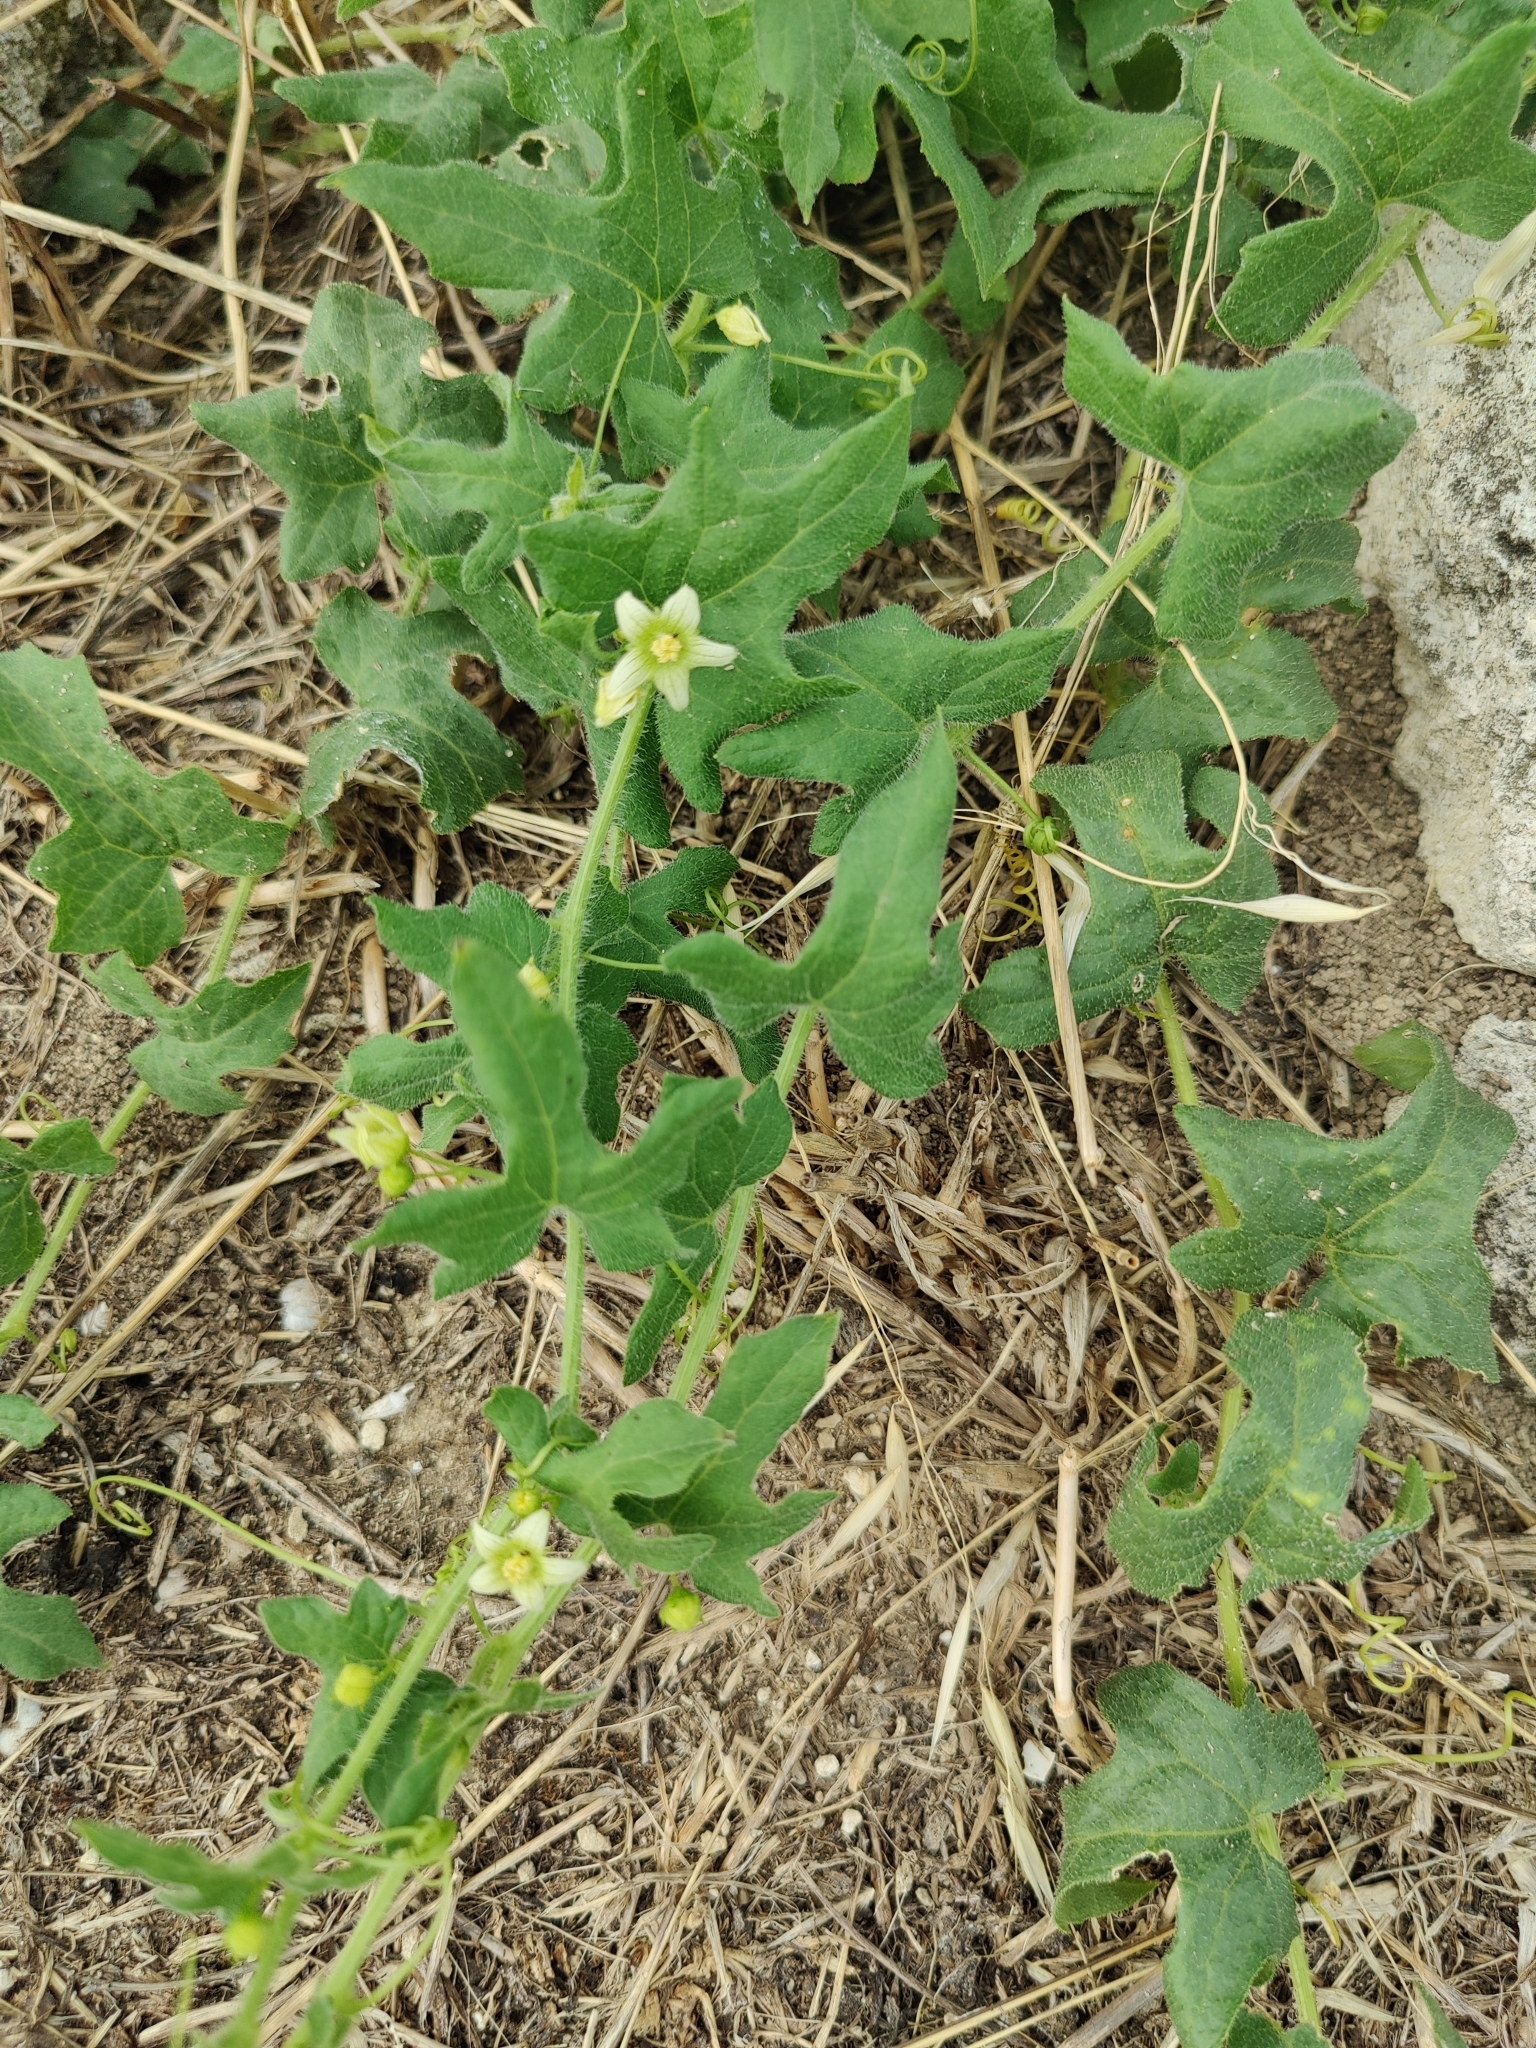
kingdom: Plantae
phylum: Tracheophyta
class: Magnoliopsida
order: Cucurbitales
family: Cucurbitaceae
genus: Bryonia
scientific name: Bryonia cretica
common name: Cretan bryony
